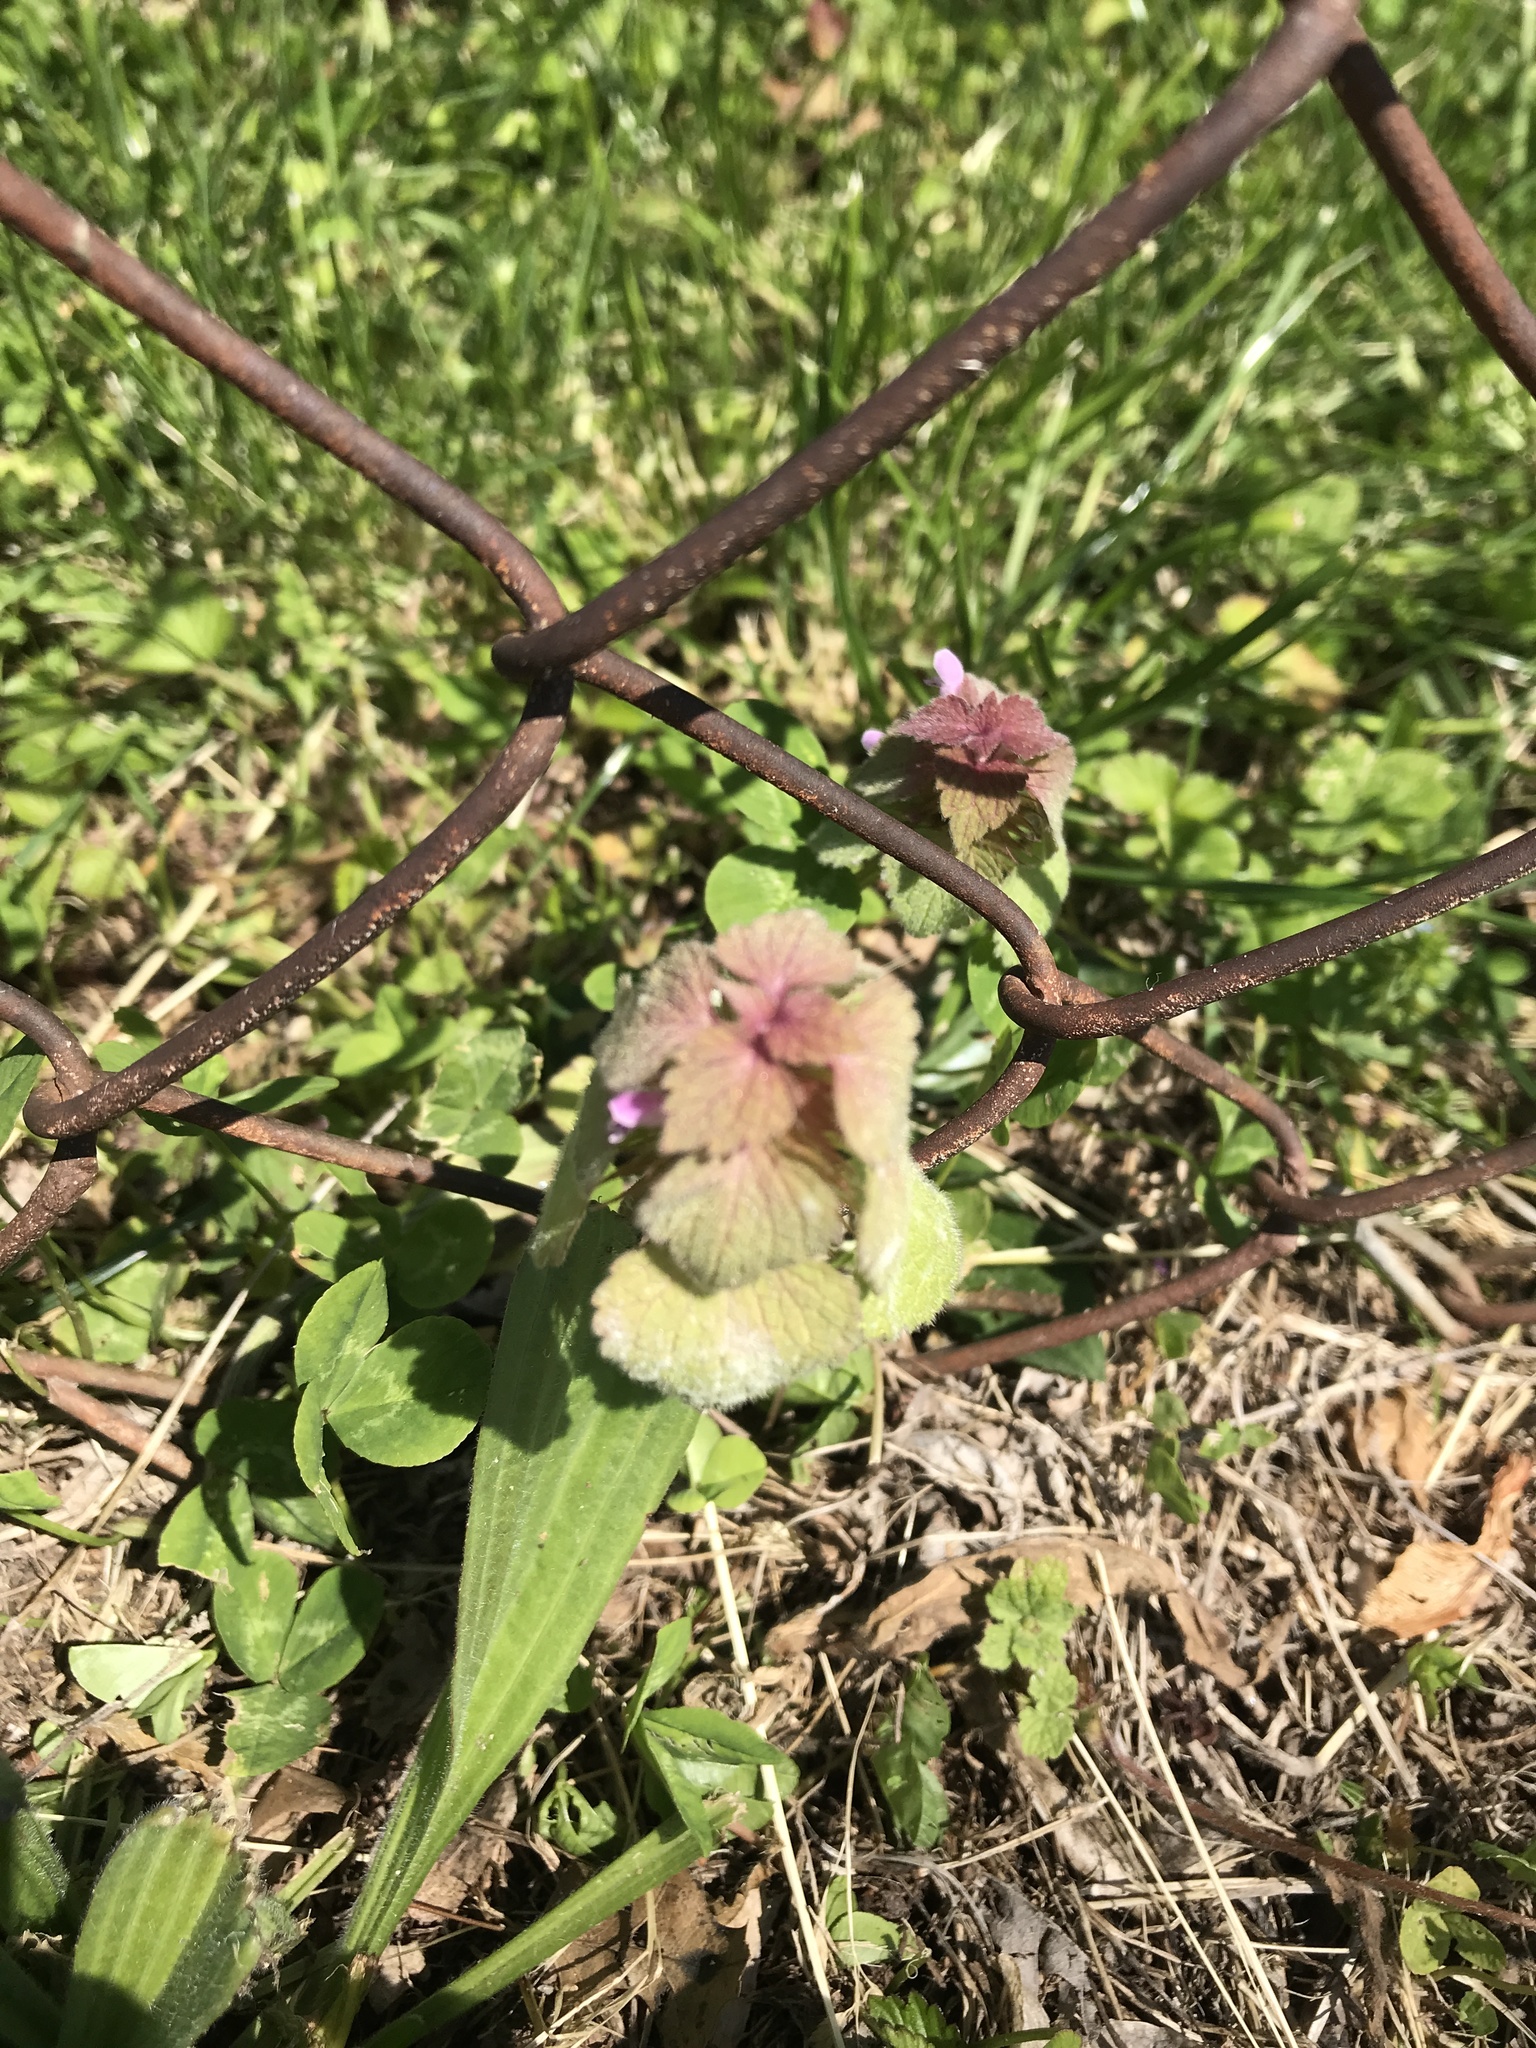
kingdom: Plantae
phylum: Tracheophyta
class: Magnoliopsida
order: Lamiales
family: Lamiaceae
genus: Lamium
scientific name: Lamium purpureum
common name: Red dead-nettle
